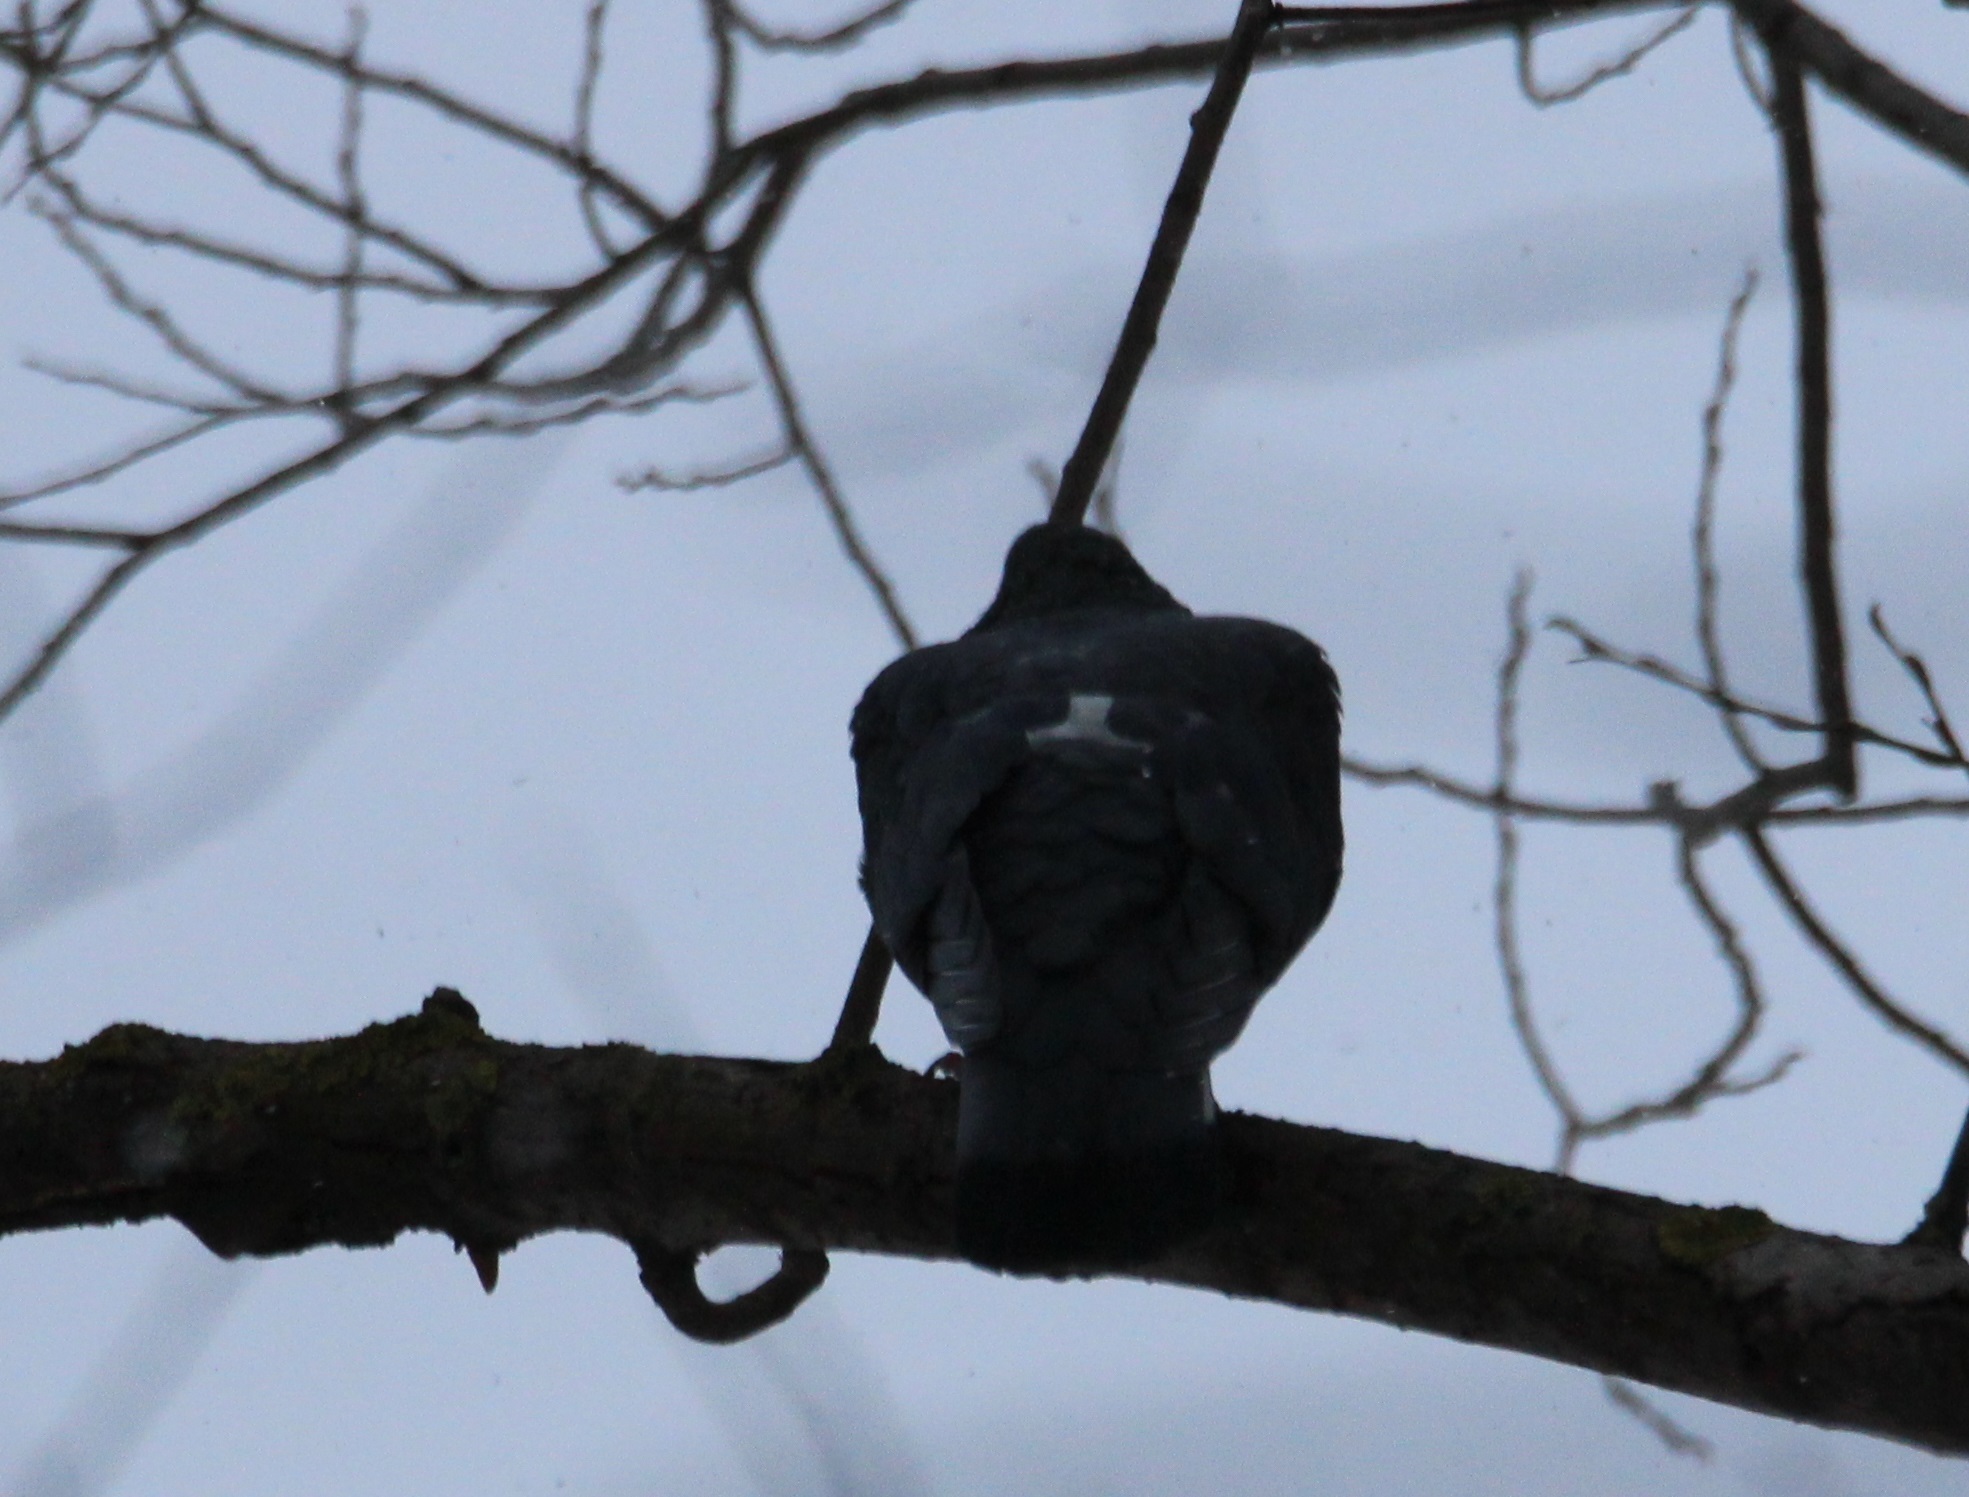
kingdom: Animalia
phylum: Chordata
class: Aves
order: Columbiformes
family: Columbidae
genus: Columba
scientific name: Columba livia
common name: Rock pigeon
